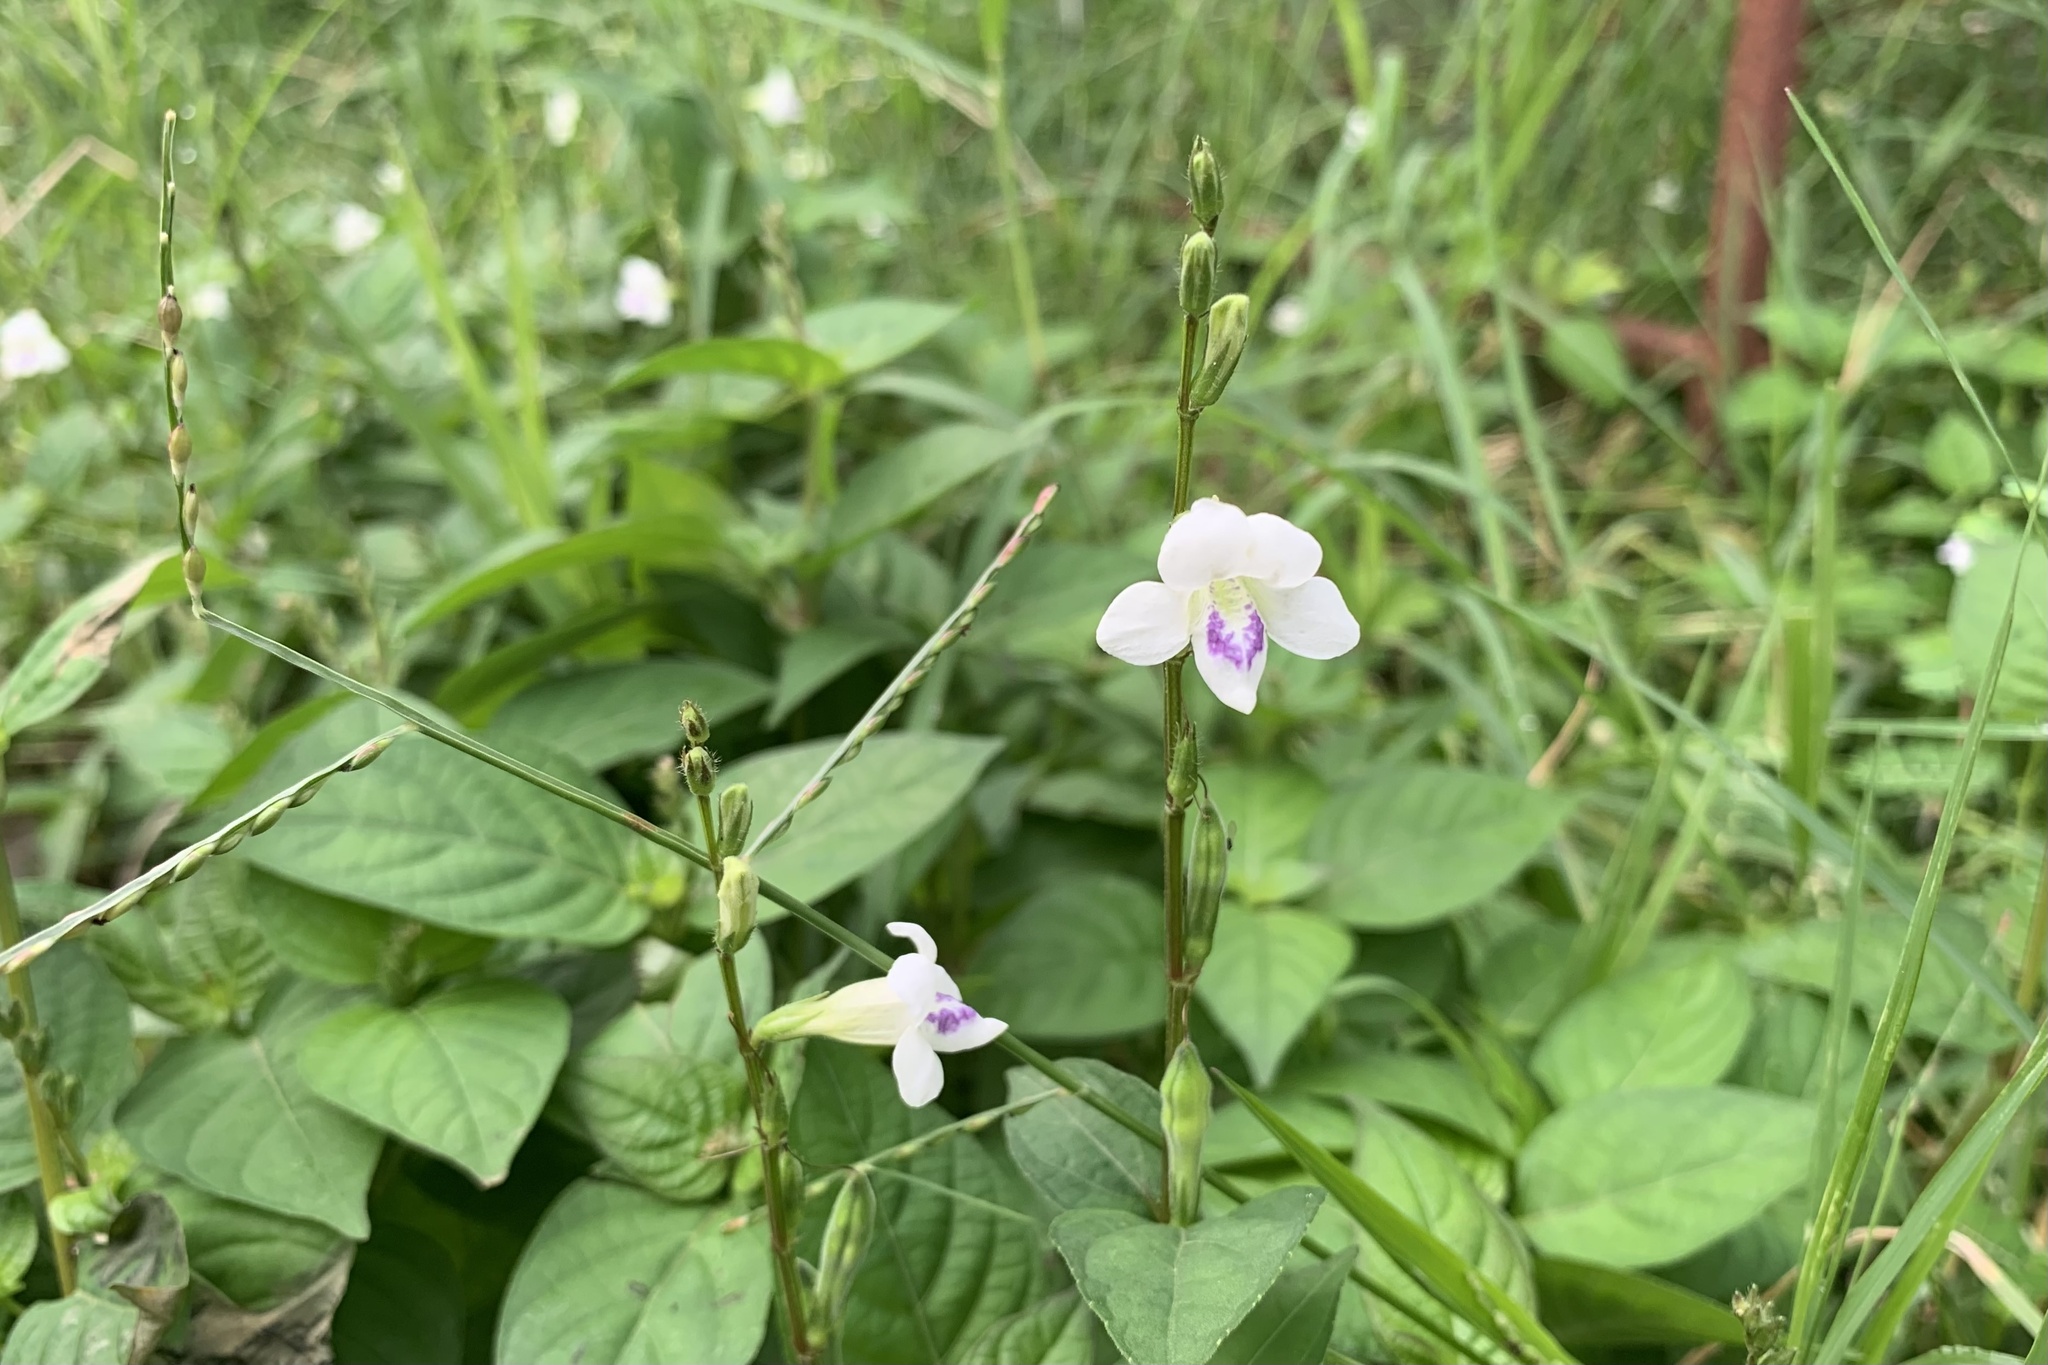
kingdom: Plantae
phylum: Tracheophyta
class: Magnoliopsida
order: Lamiales
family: Acanthaceae
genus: Asystasia
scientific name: Asystasia intrusa
